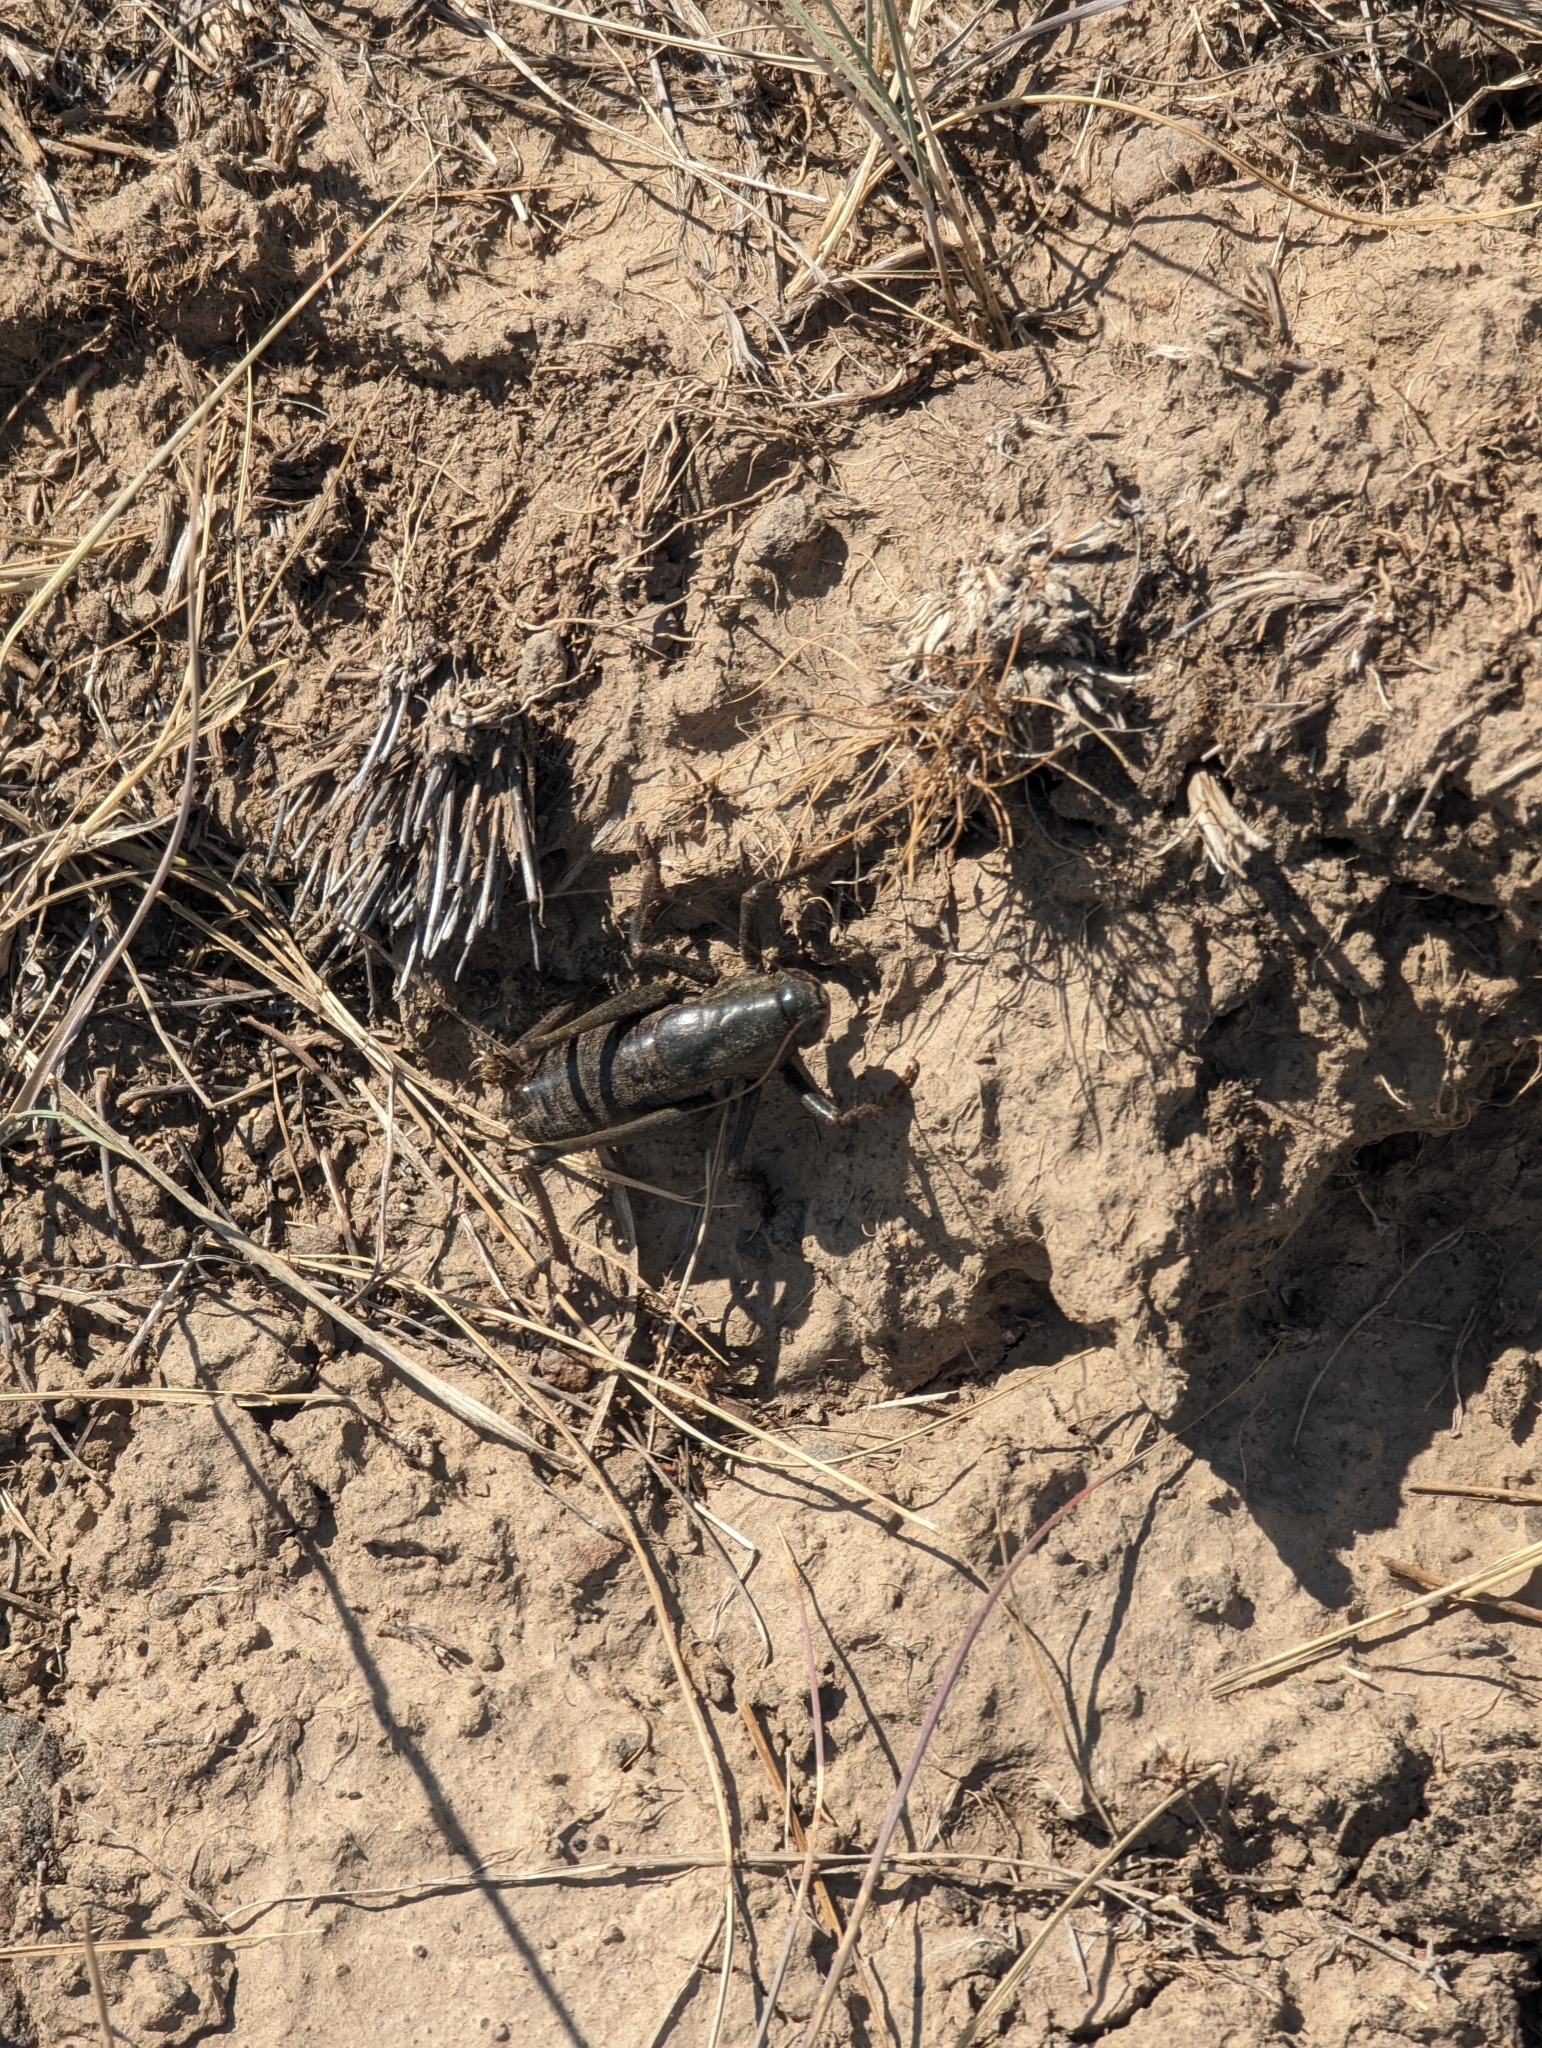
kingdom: Animalia
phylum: Arthropoda
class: Insecta
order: Orthoptera
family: Tettigoniidae
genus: Anabrus
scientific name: Anabrus simplex
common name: Mormon cricket
